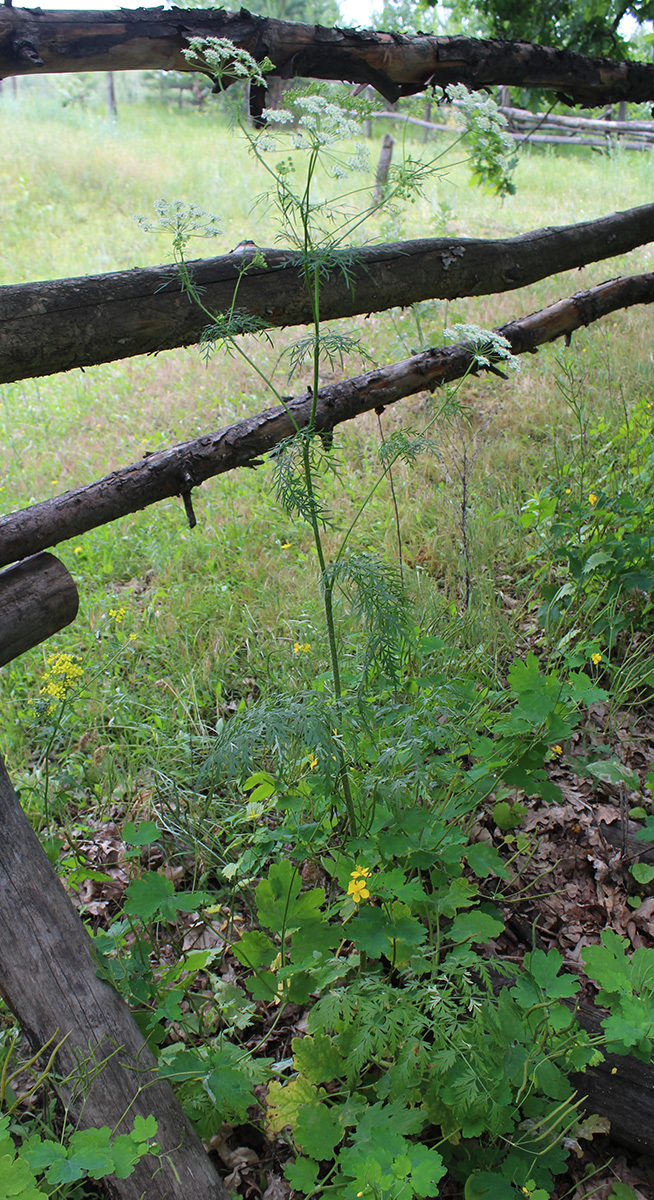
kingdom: Plantae
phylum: Tracheophyta
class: Magnoliopsida
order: Apiales
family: Apiaceae
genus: Chaerophyllum
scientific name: Chaerophyllum prescottii
